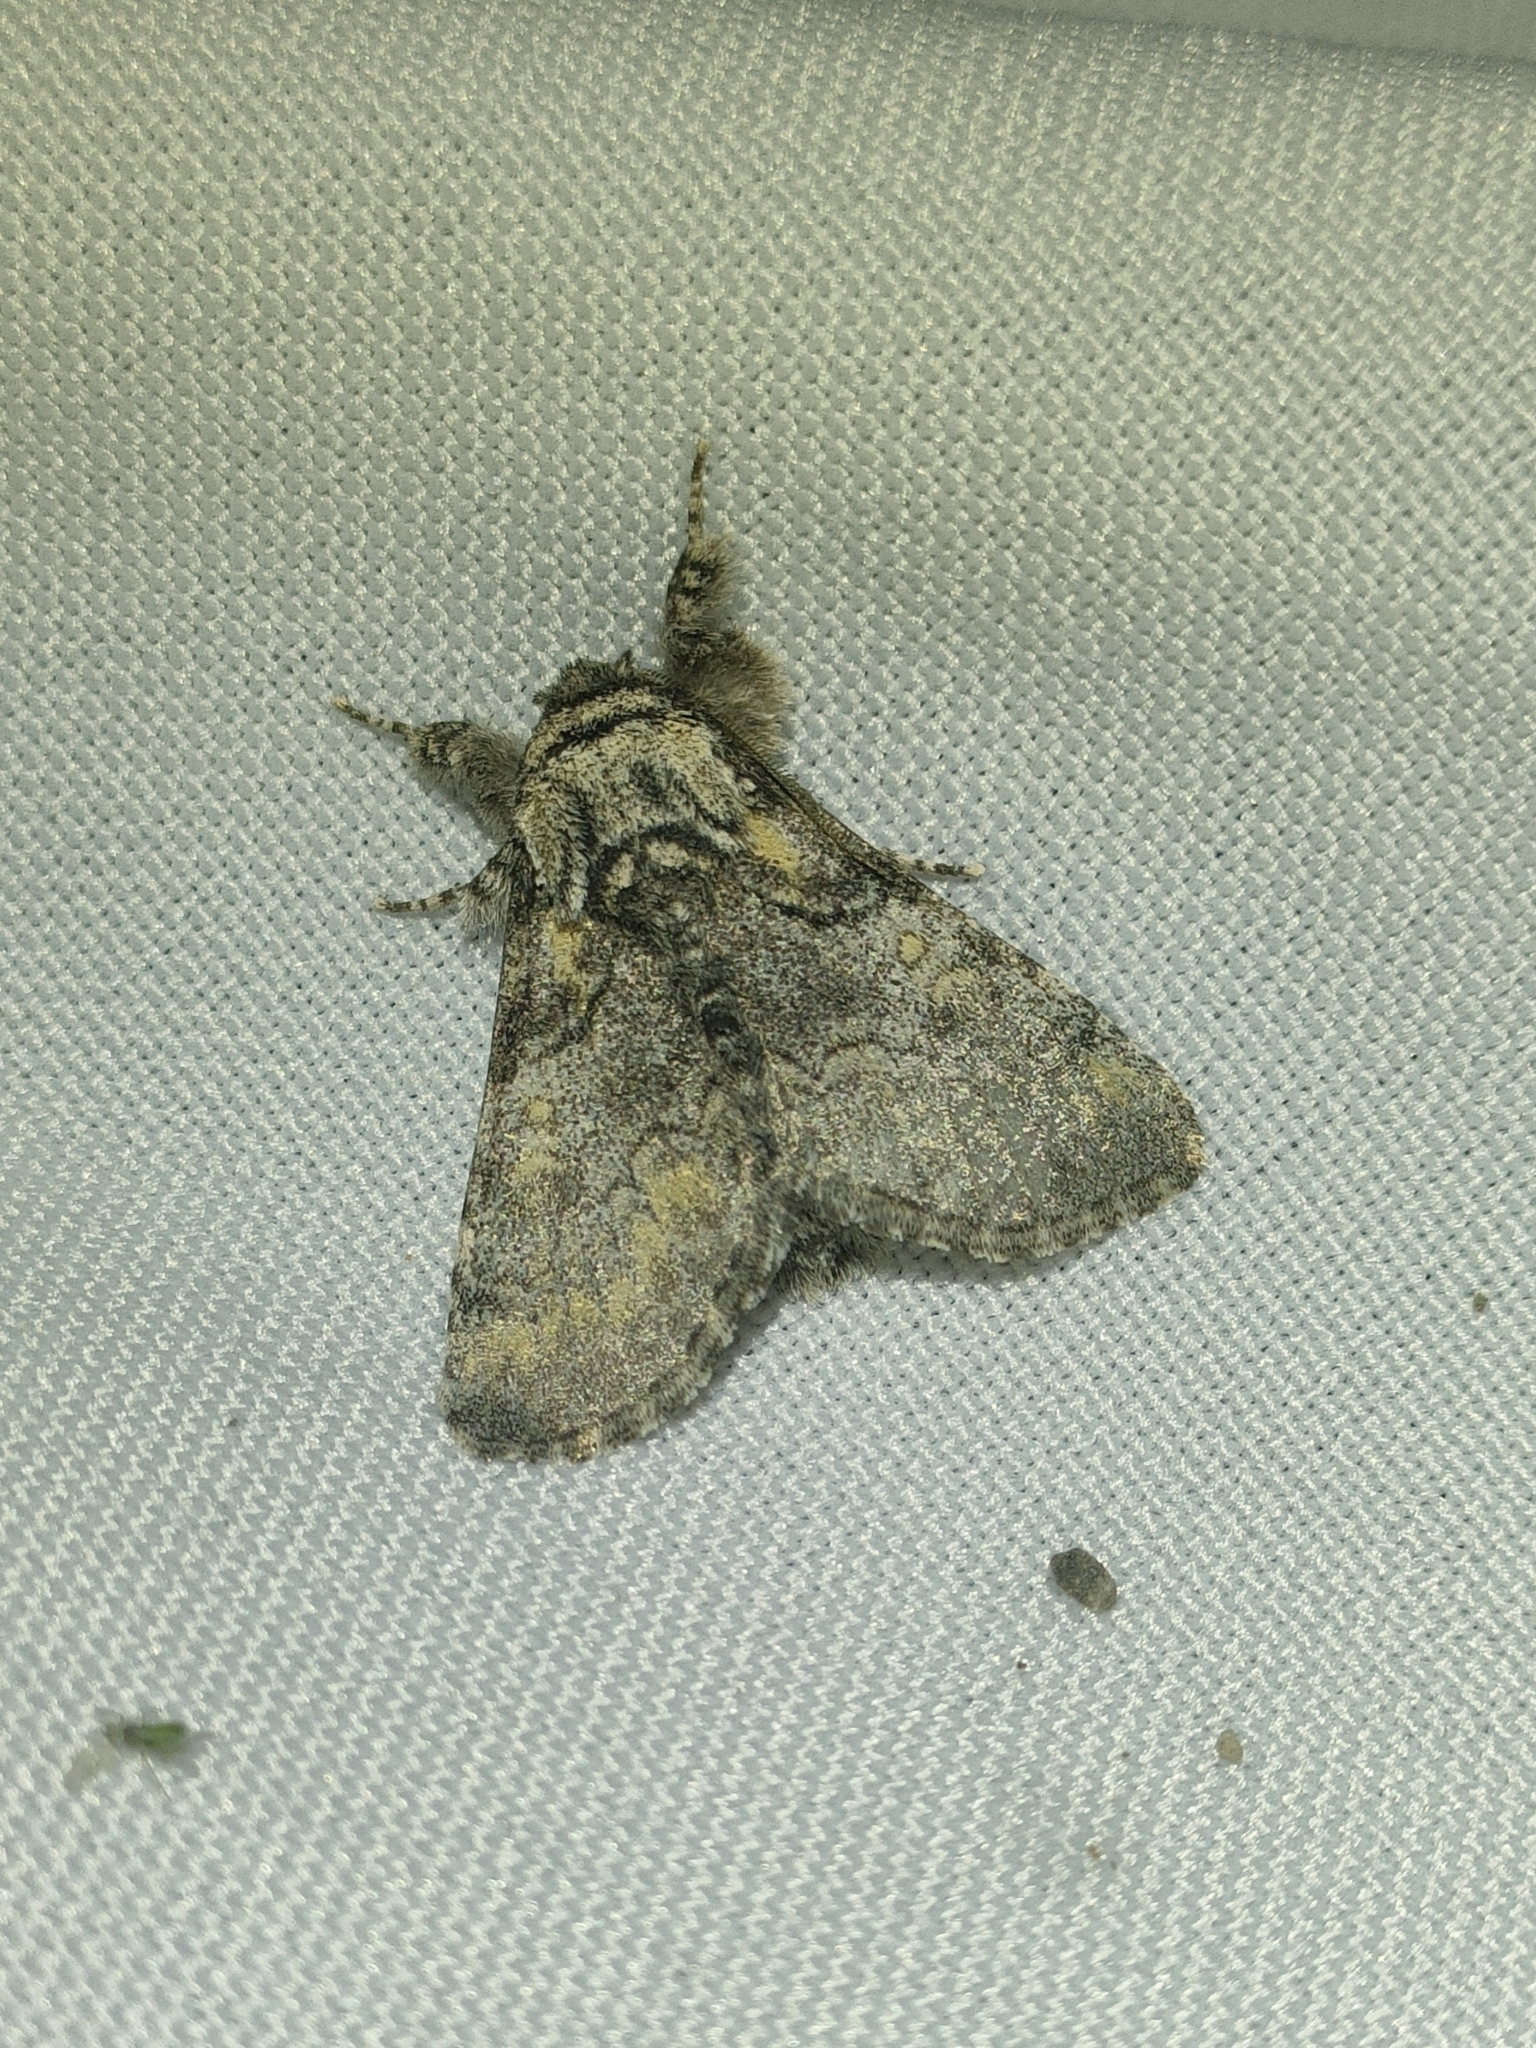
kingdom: Animalia
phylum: Arthropoda
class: Insecta
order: Lepidoptera
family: Noctuidae
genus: Raphia
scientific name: Raphia hybris
